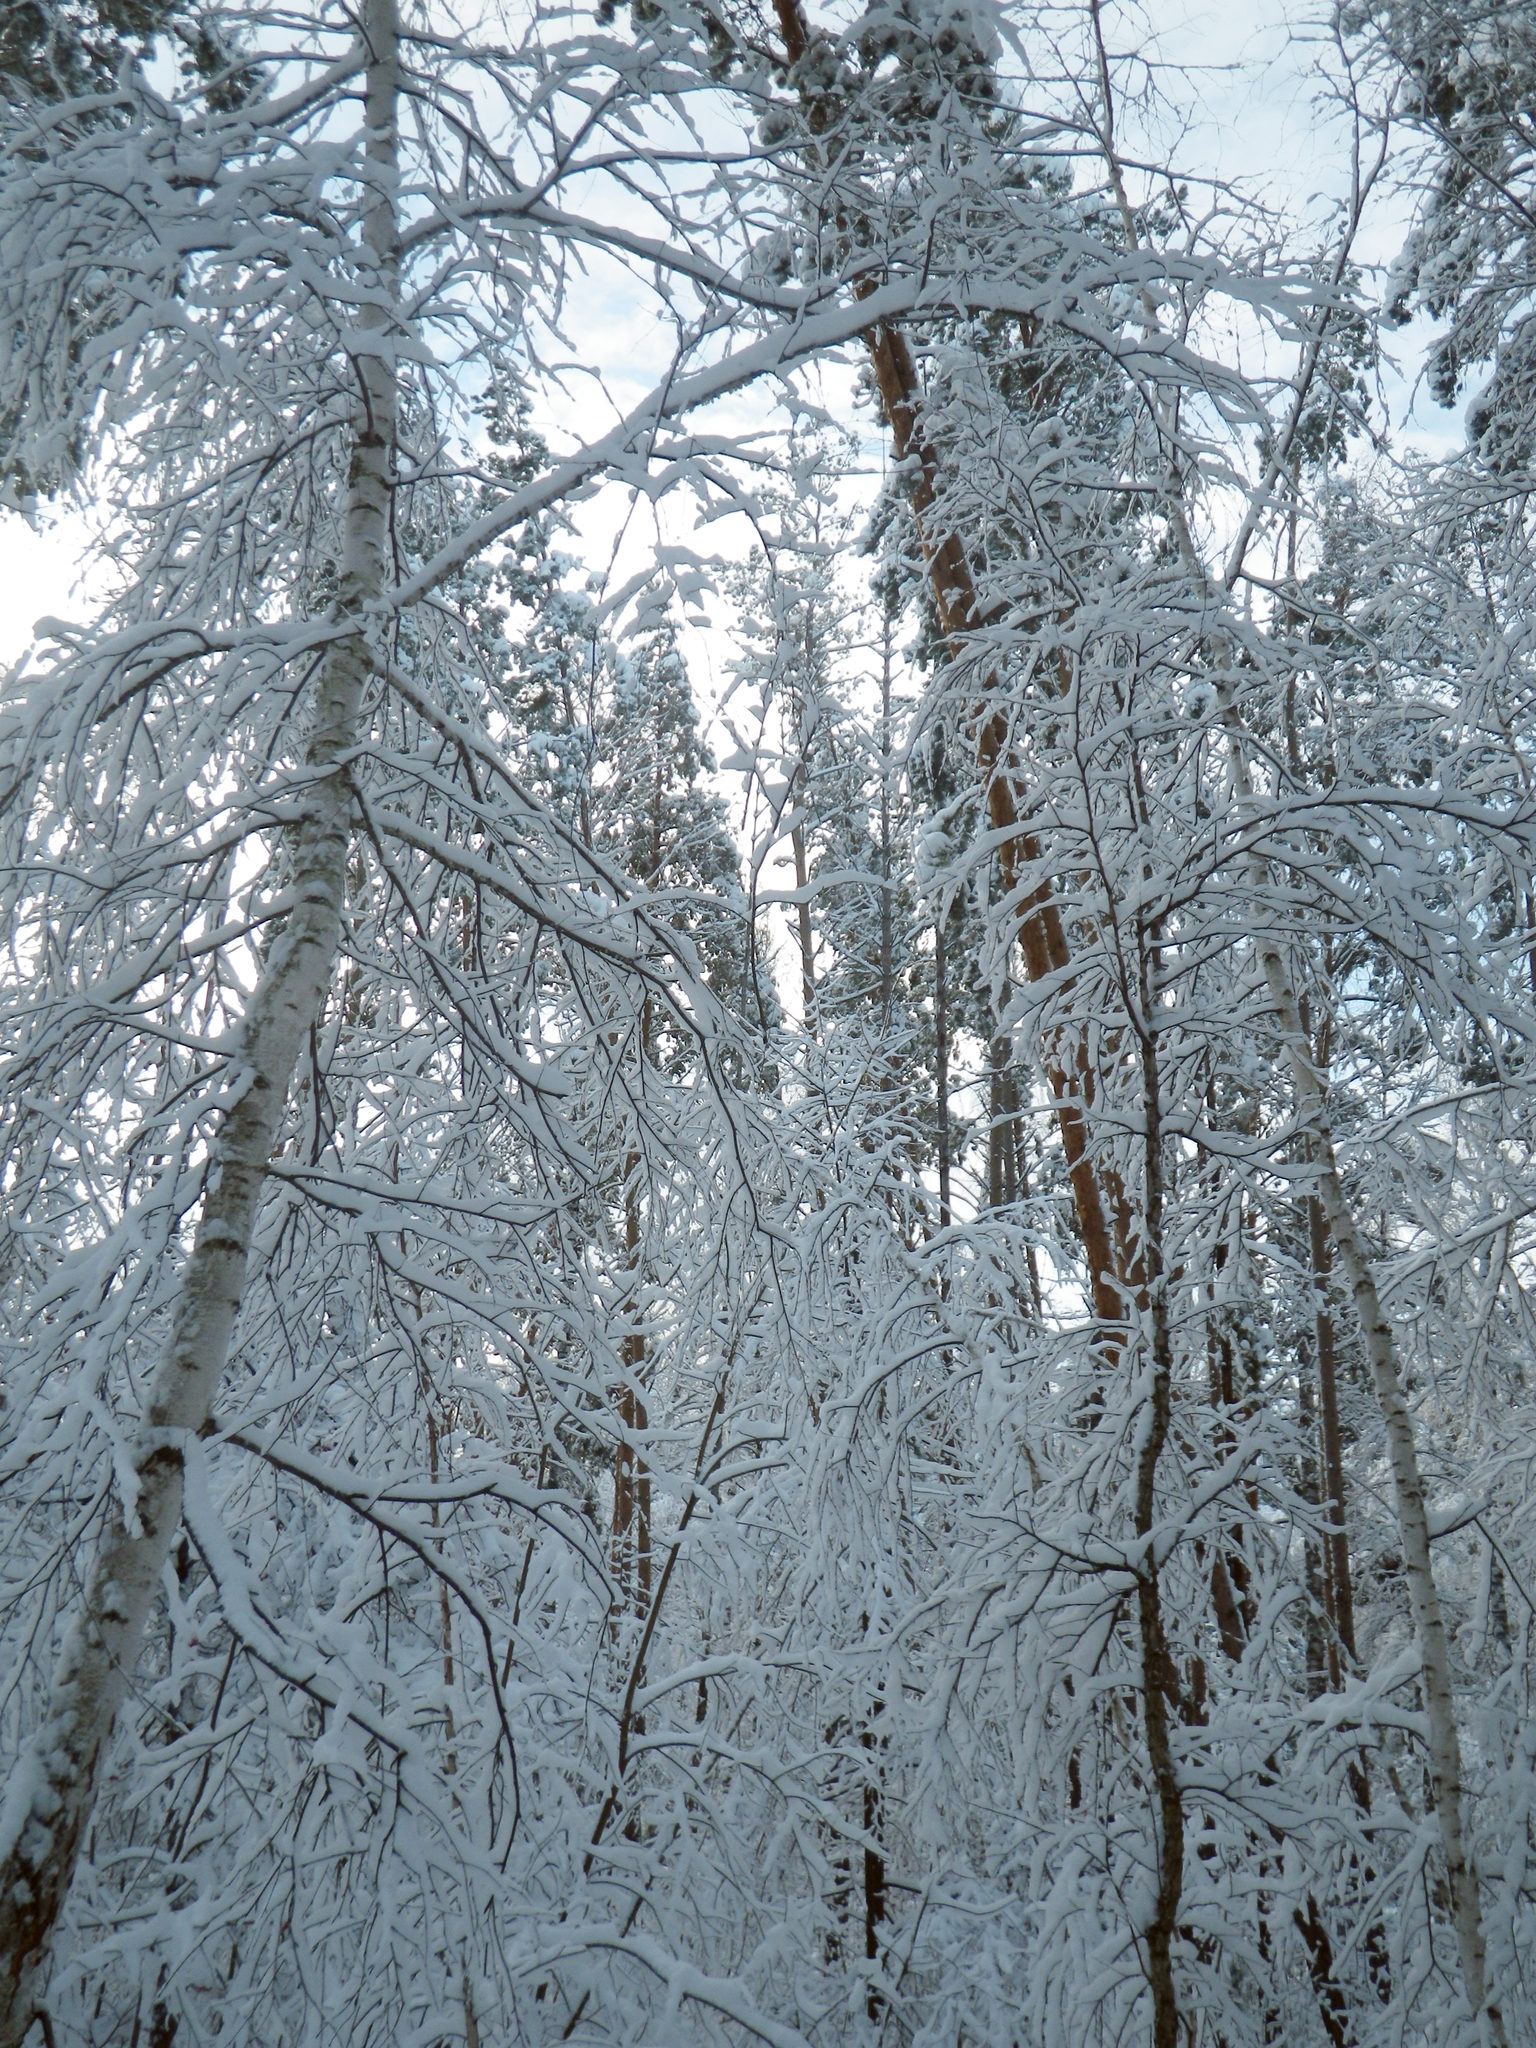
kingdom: Plantae
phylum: Tracheophyta
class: Magnoliopsida
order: Fagales
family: Betulaceae
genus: Betula
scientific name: Betula pendula
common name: Silver birch
